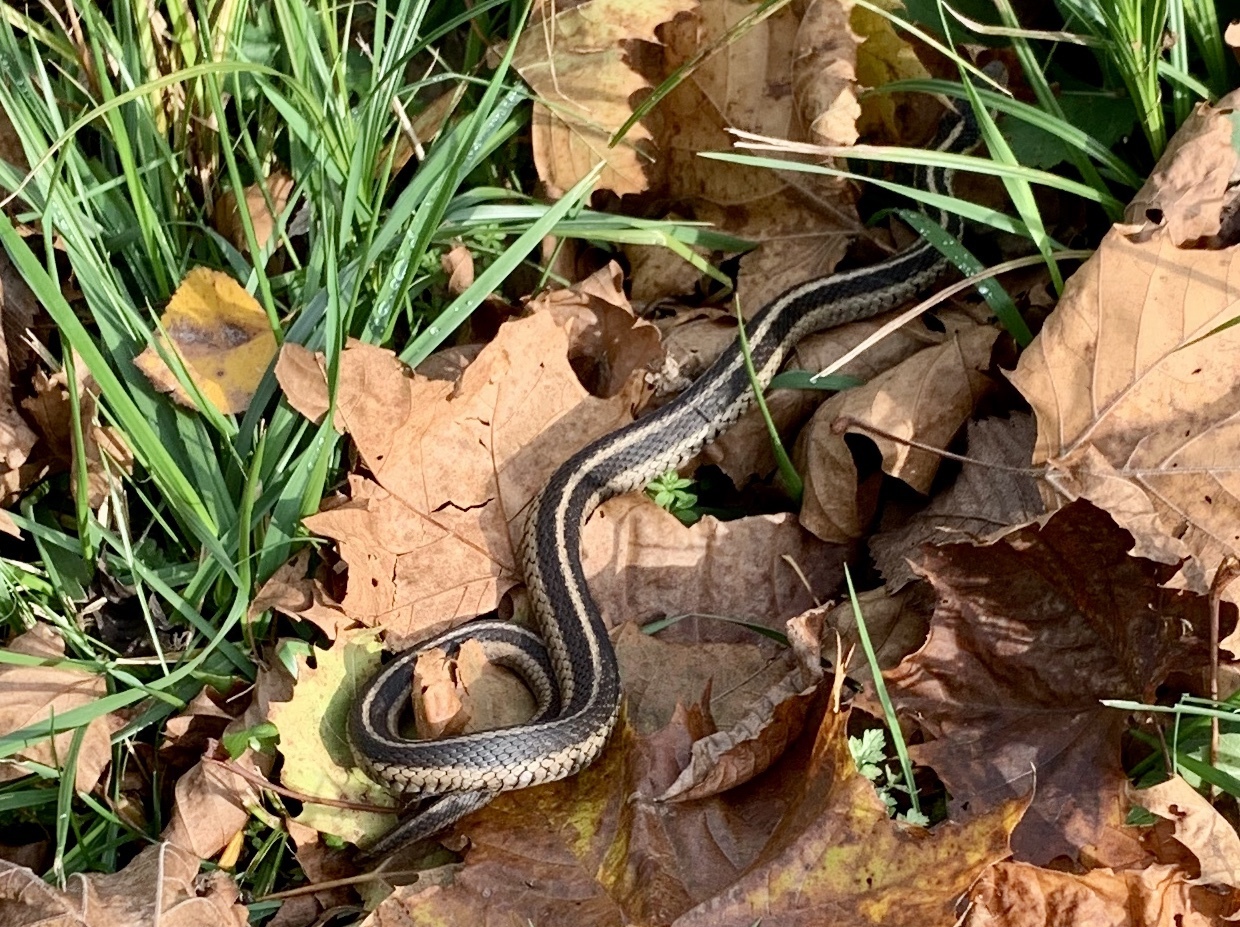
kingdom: Animalia
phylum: Chordata
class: Squamata
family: Colubridae
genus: Thamnophis
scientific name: Thamnophis sirtalis
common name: Common garter snake
